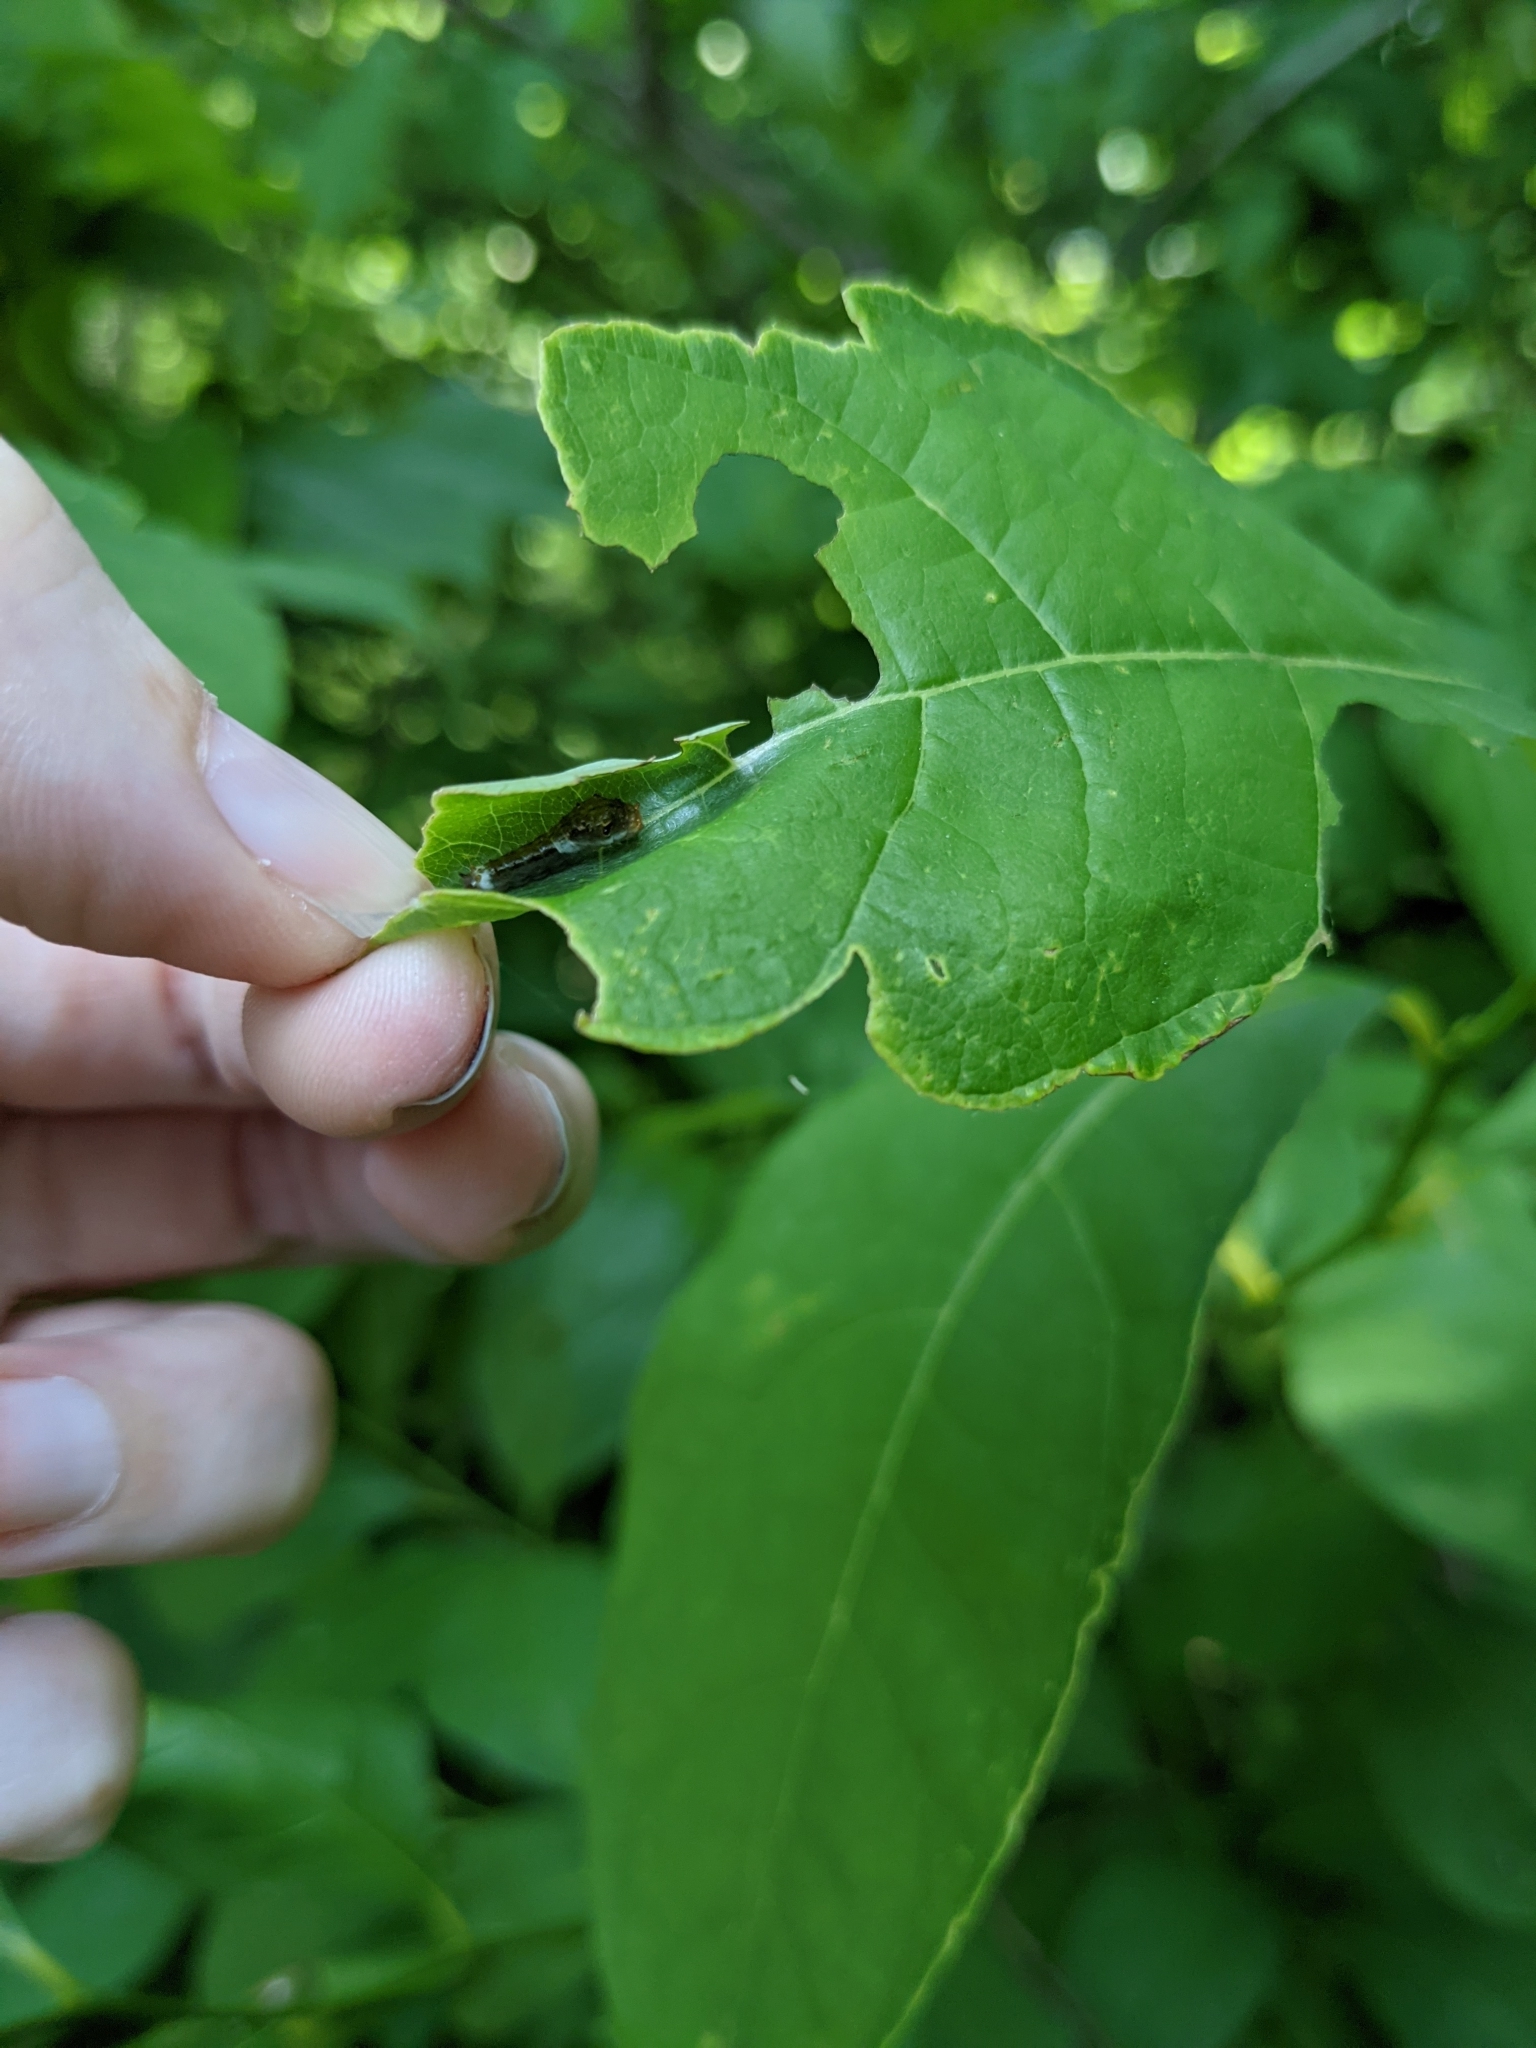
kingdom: Animalia
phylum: Arthropoda
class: Insecta
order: Lepidoptera
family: Papilionidae
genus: Papilio
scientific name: Papilio troilus
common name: Spicebush swallowtail
